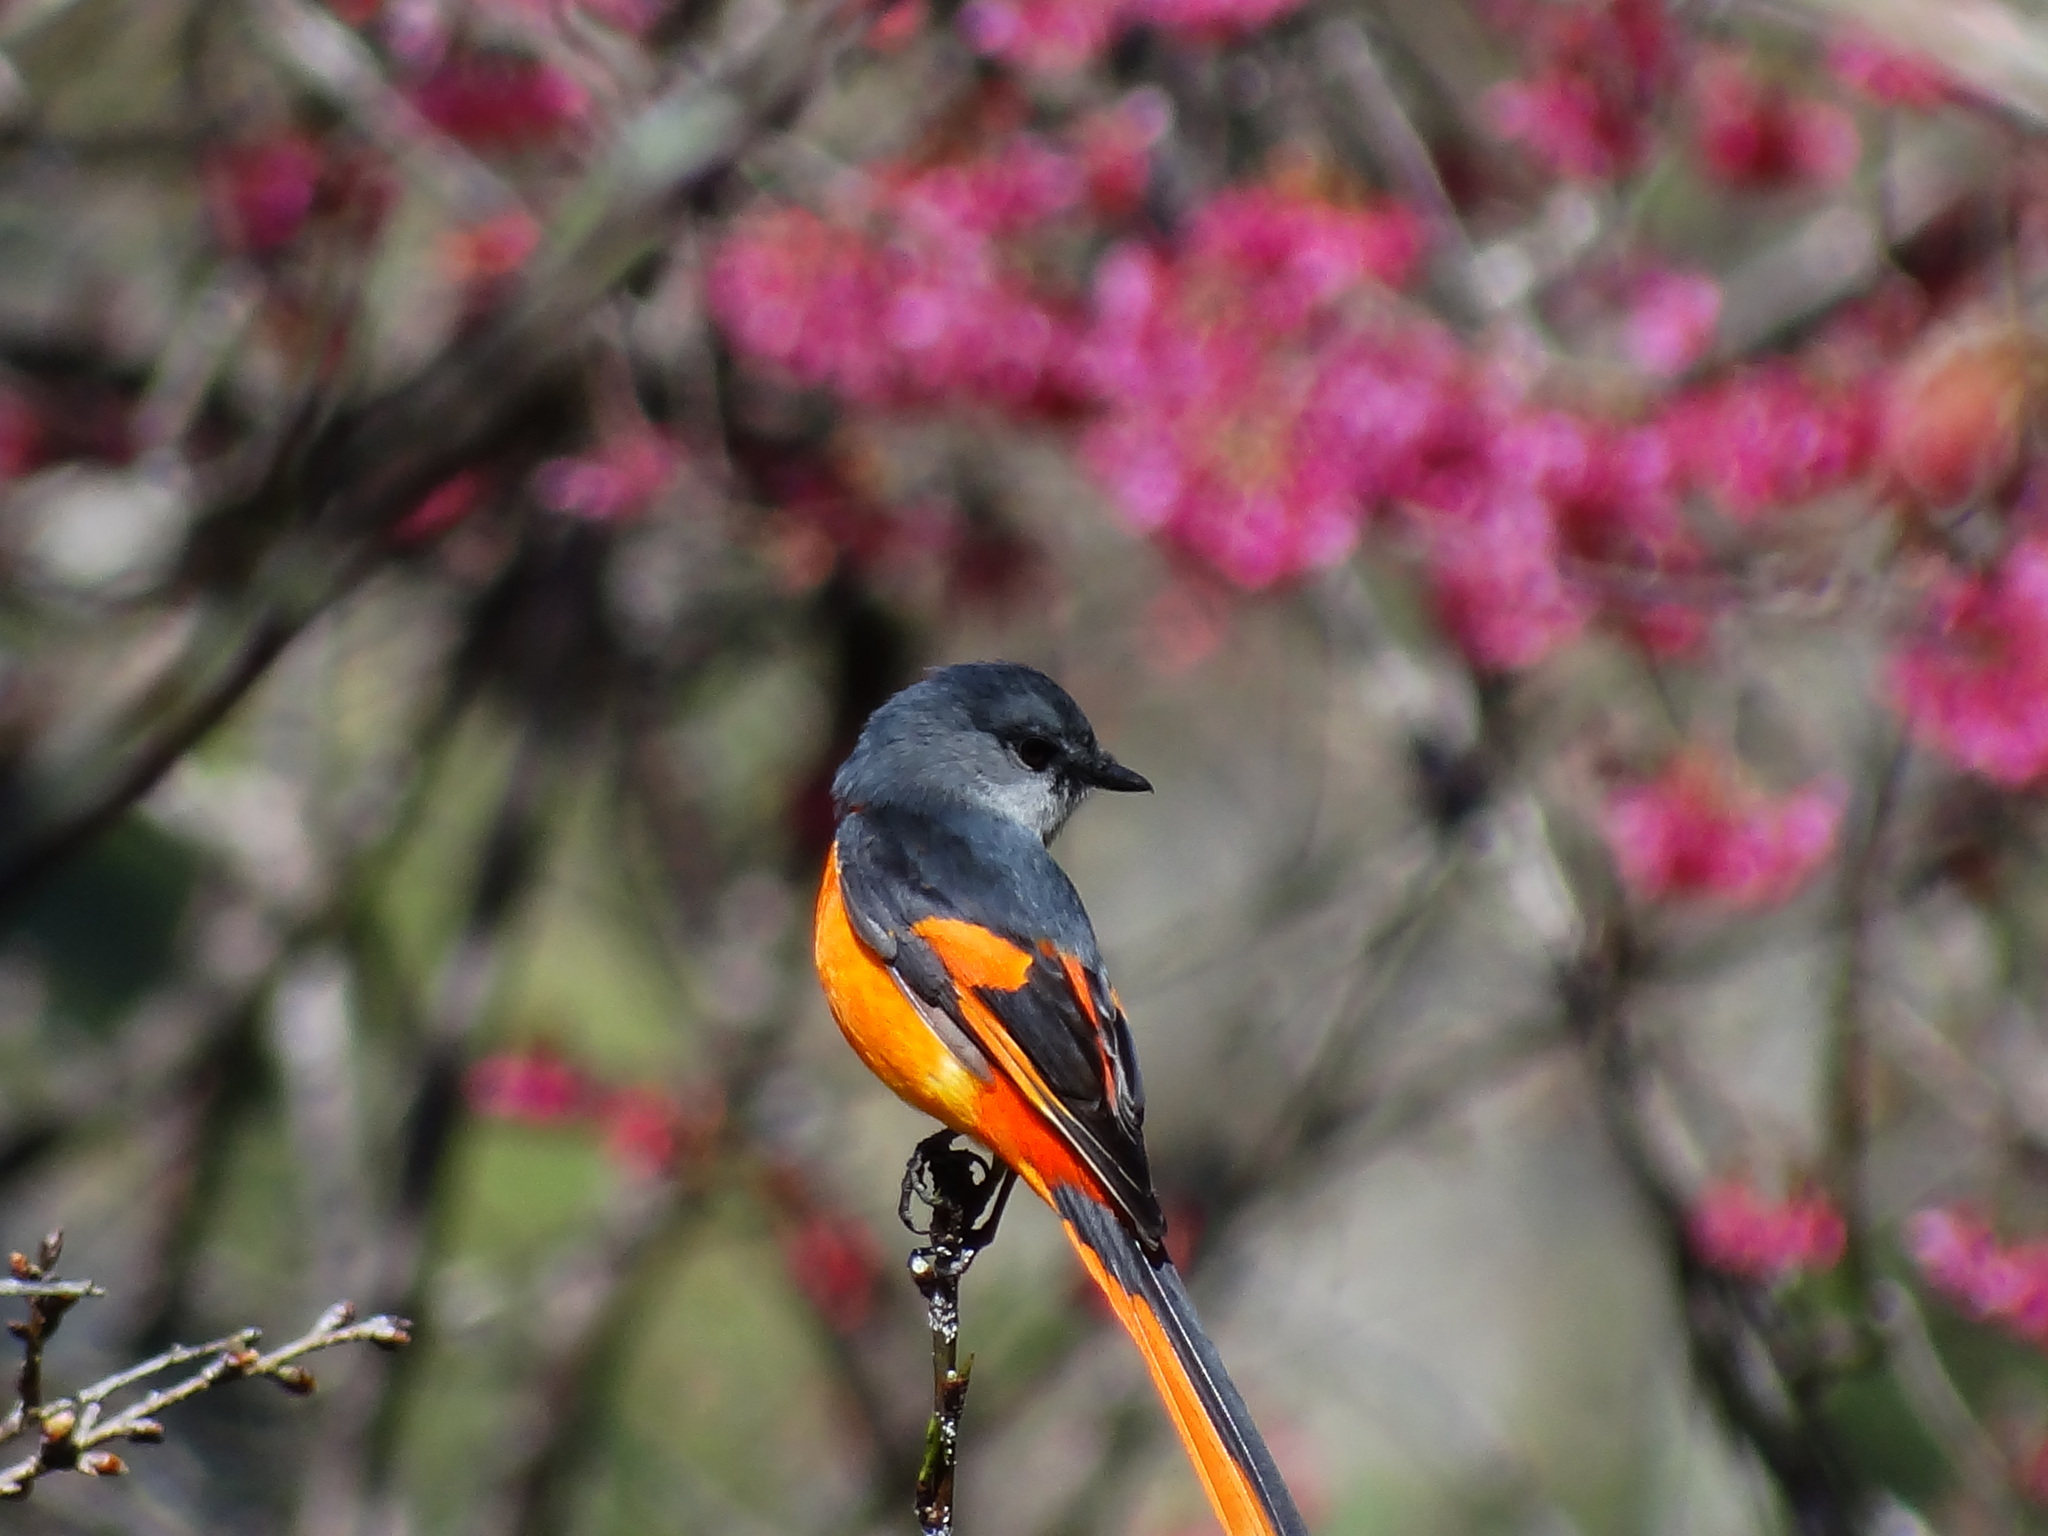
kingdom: Animalia
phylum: Chordata
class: Aves
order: Passeriformes
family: Campephagidae
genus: Pericrocotus
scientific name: Pericrocotus solaris
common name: Grey-chinned minivet
